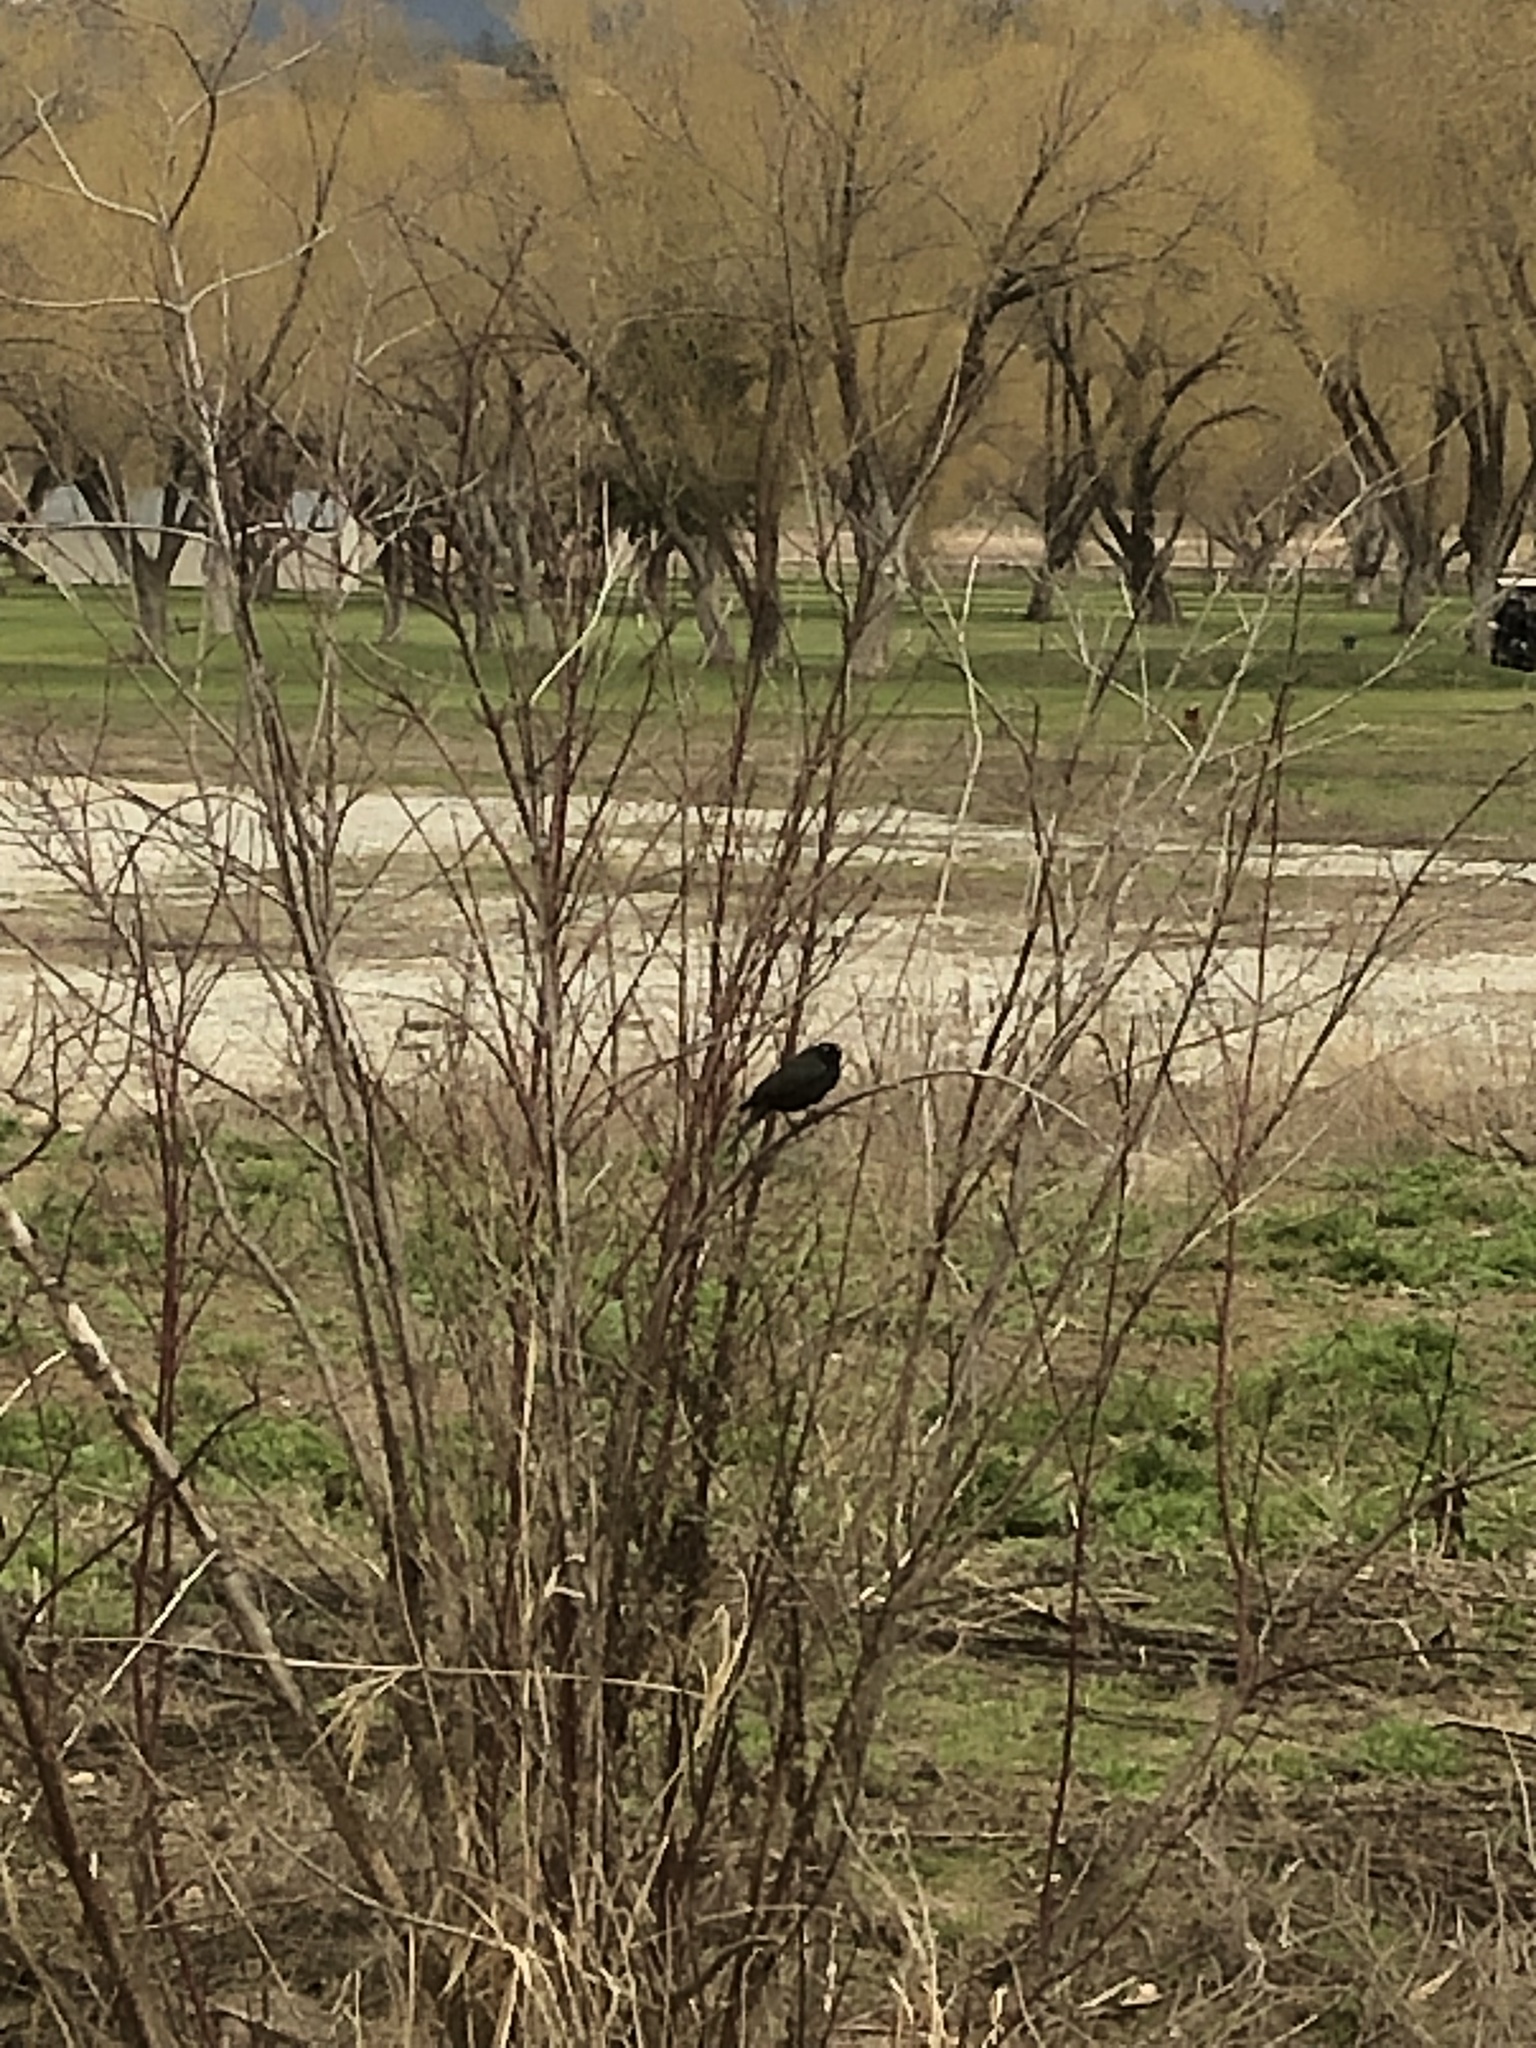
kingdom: Animalia
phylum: Chordata
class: Aves
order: Passeriformes
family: Icteridae
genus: Euphagus
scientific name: Euphagus cyanocephalus
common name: Brewer's blackbird
